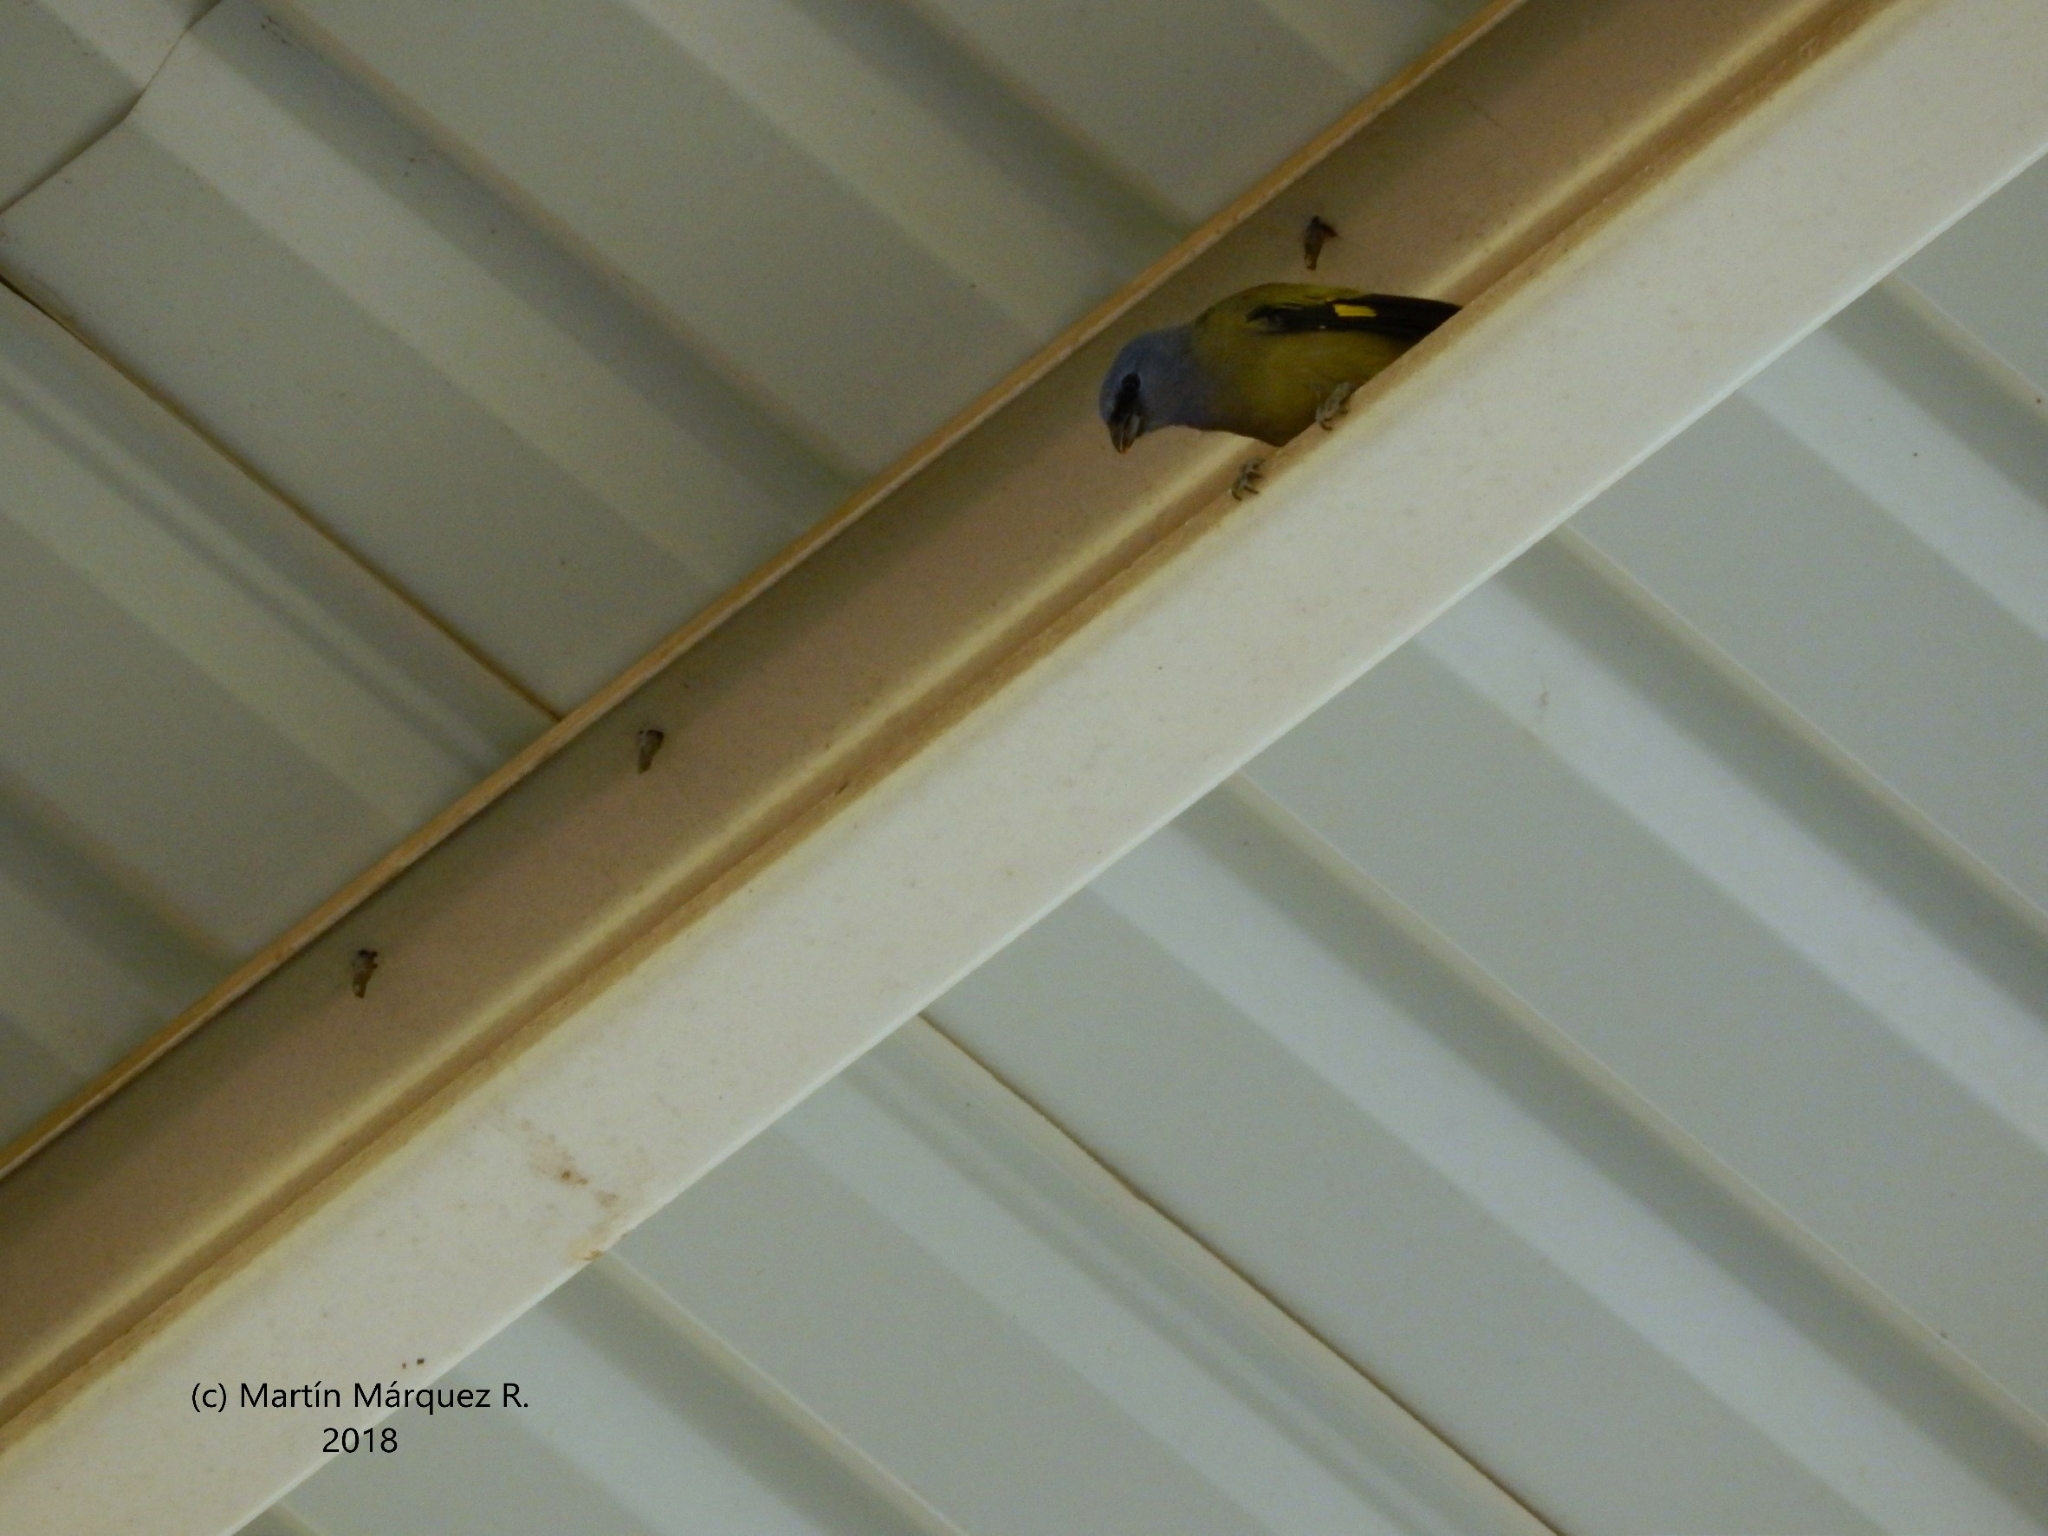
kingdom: Animalia
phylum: Chordata
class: Aves
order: Passeriformes
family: Thraupidae
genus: Thraupis
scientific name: Thraupis abbas
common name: Yellow-winged tanager
